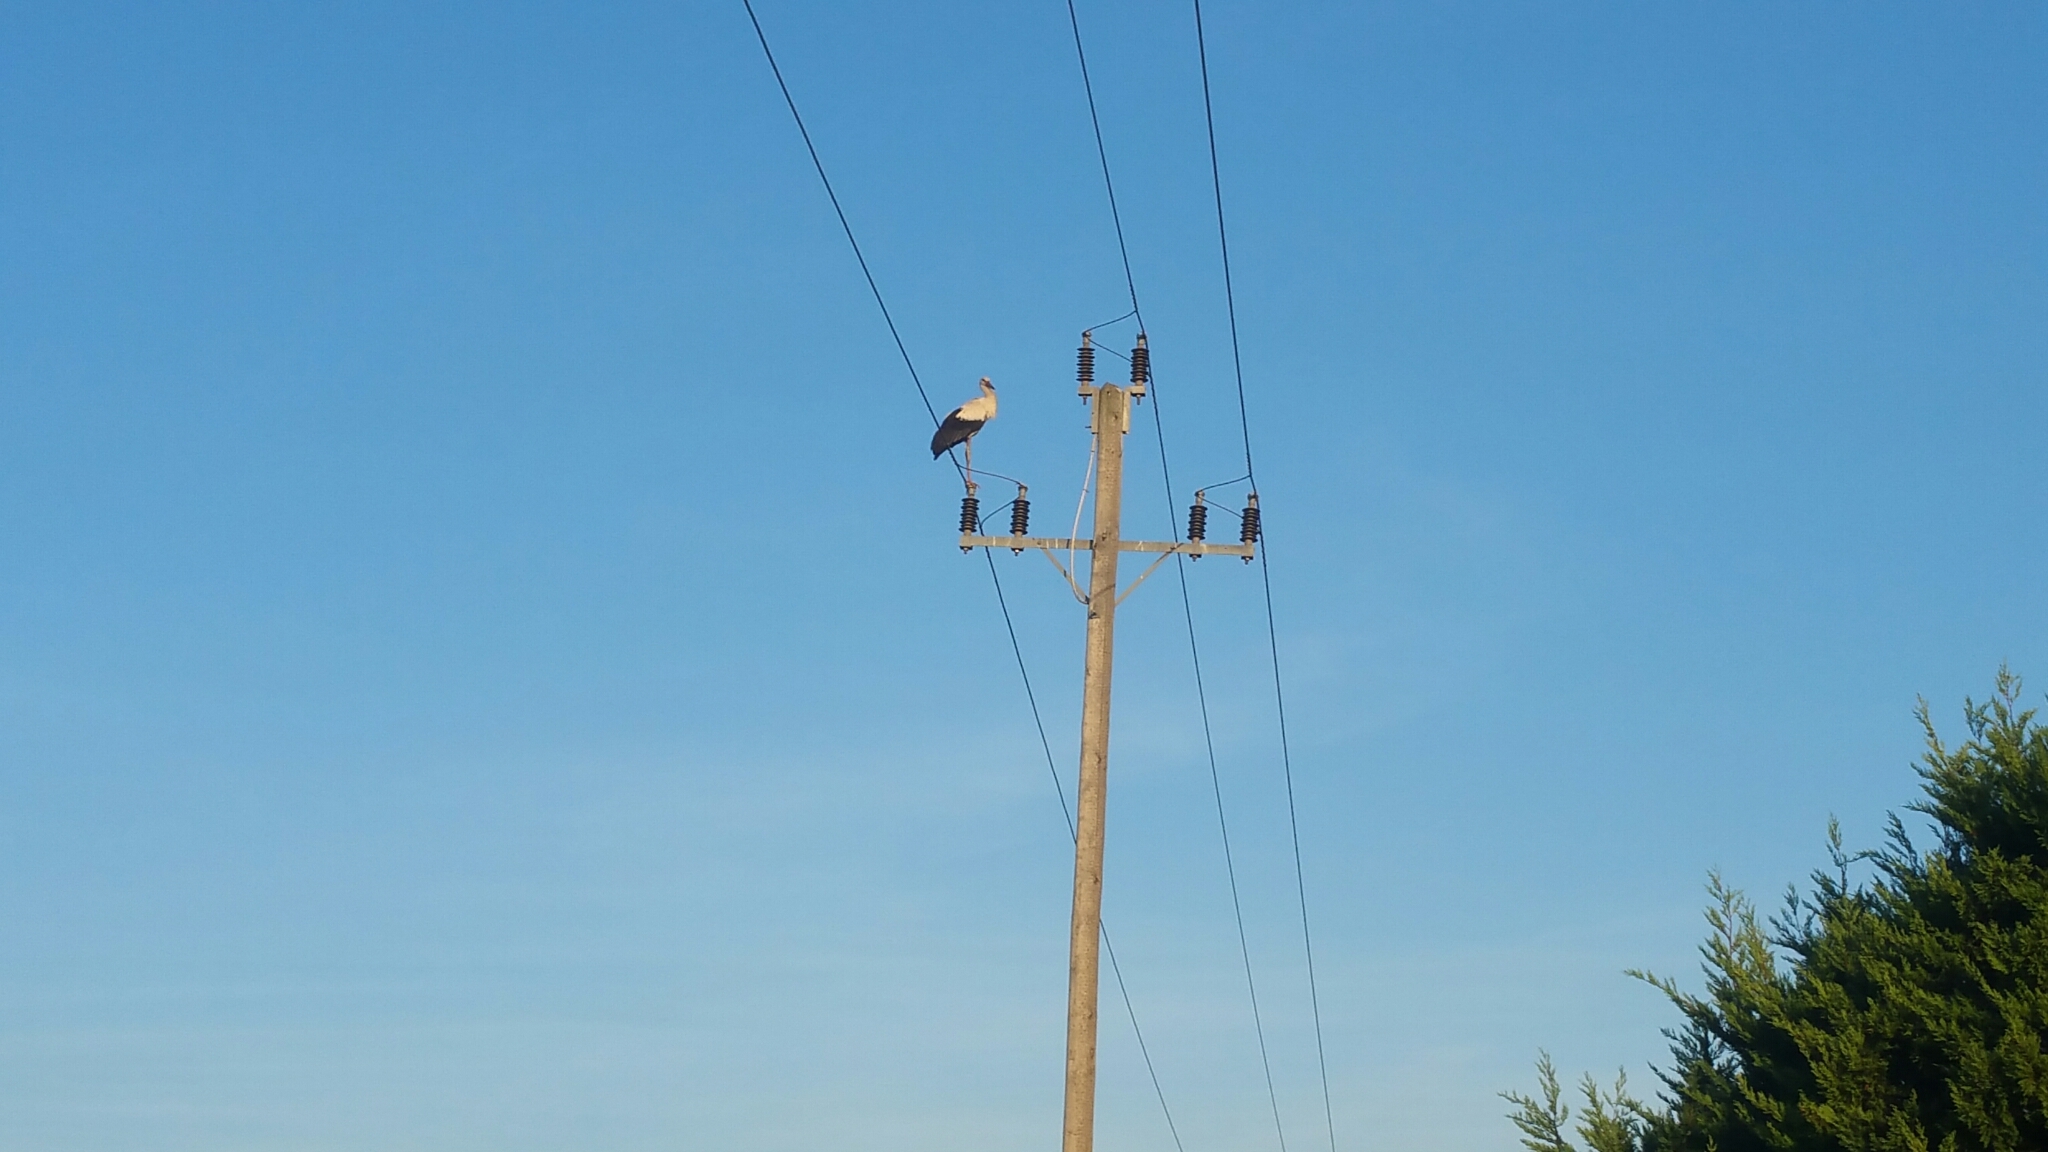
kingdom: Animalia
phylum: Chordata
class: Aves
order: Ciconiiformes
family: Ciconiidae
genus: Ciconia
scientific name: Ciconia ciconia
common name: White stork
